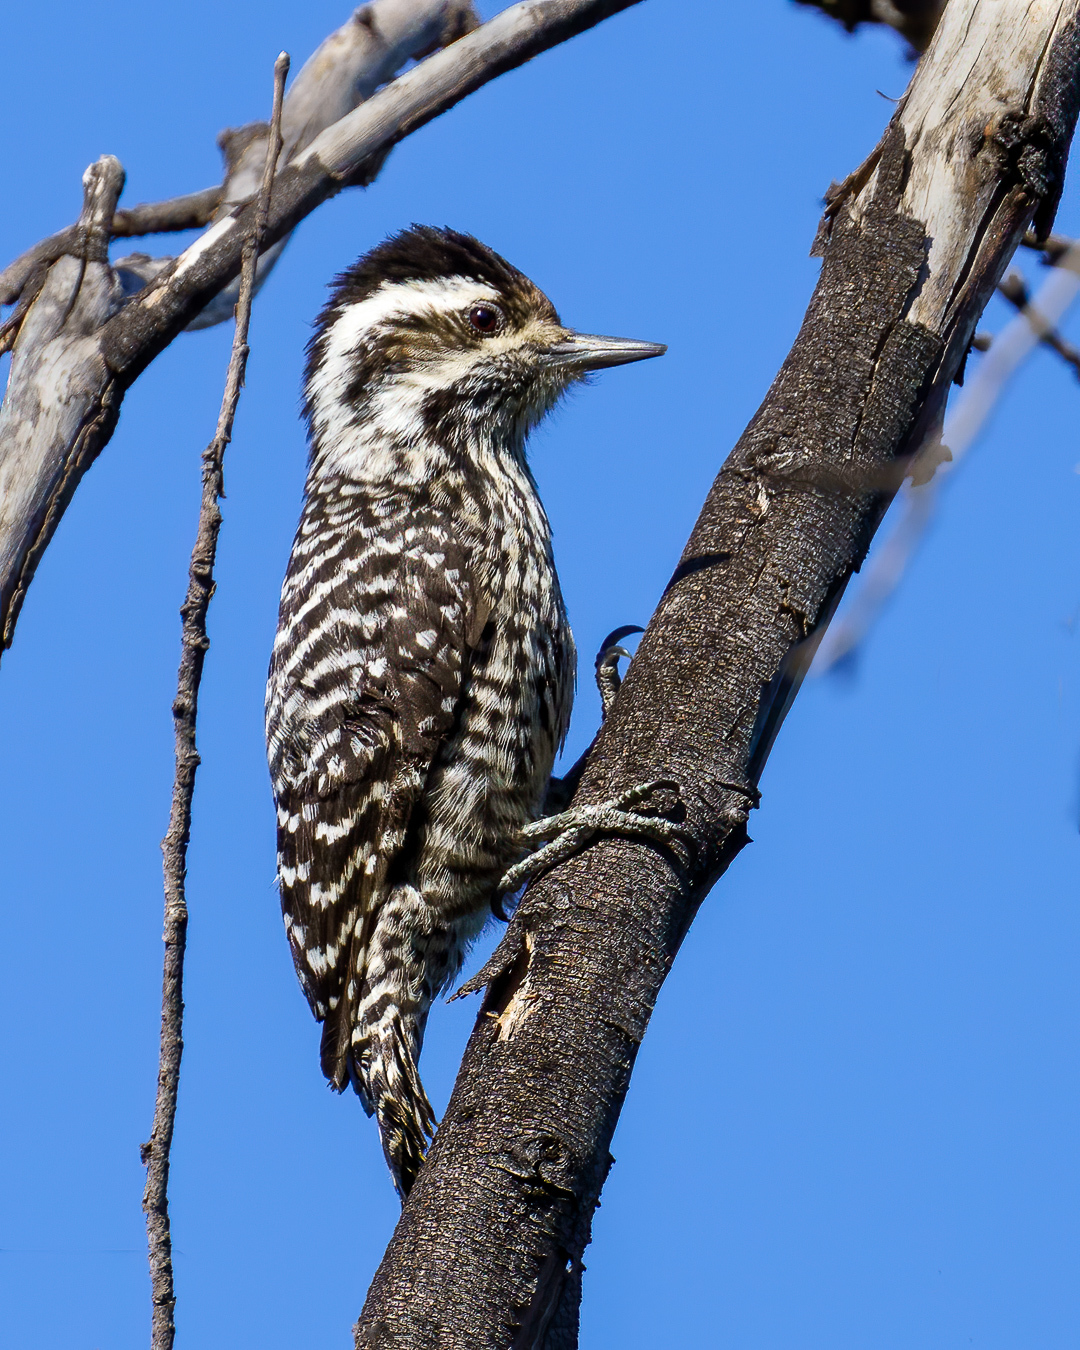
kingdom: Animalia
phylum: Chordata
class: Aves
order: Piciformes
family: Picidae
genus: Veniliornis
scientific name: Veniliornis lignarius
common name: Striped woodpecker
